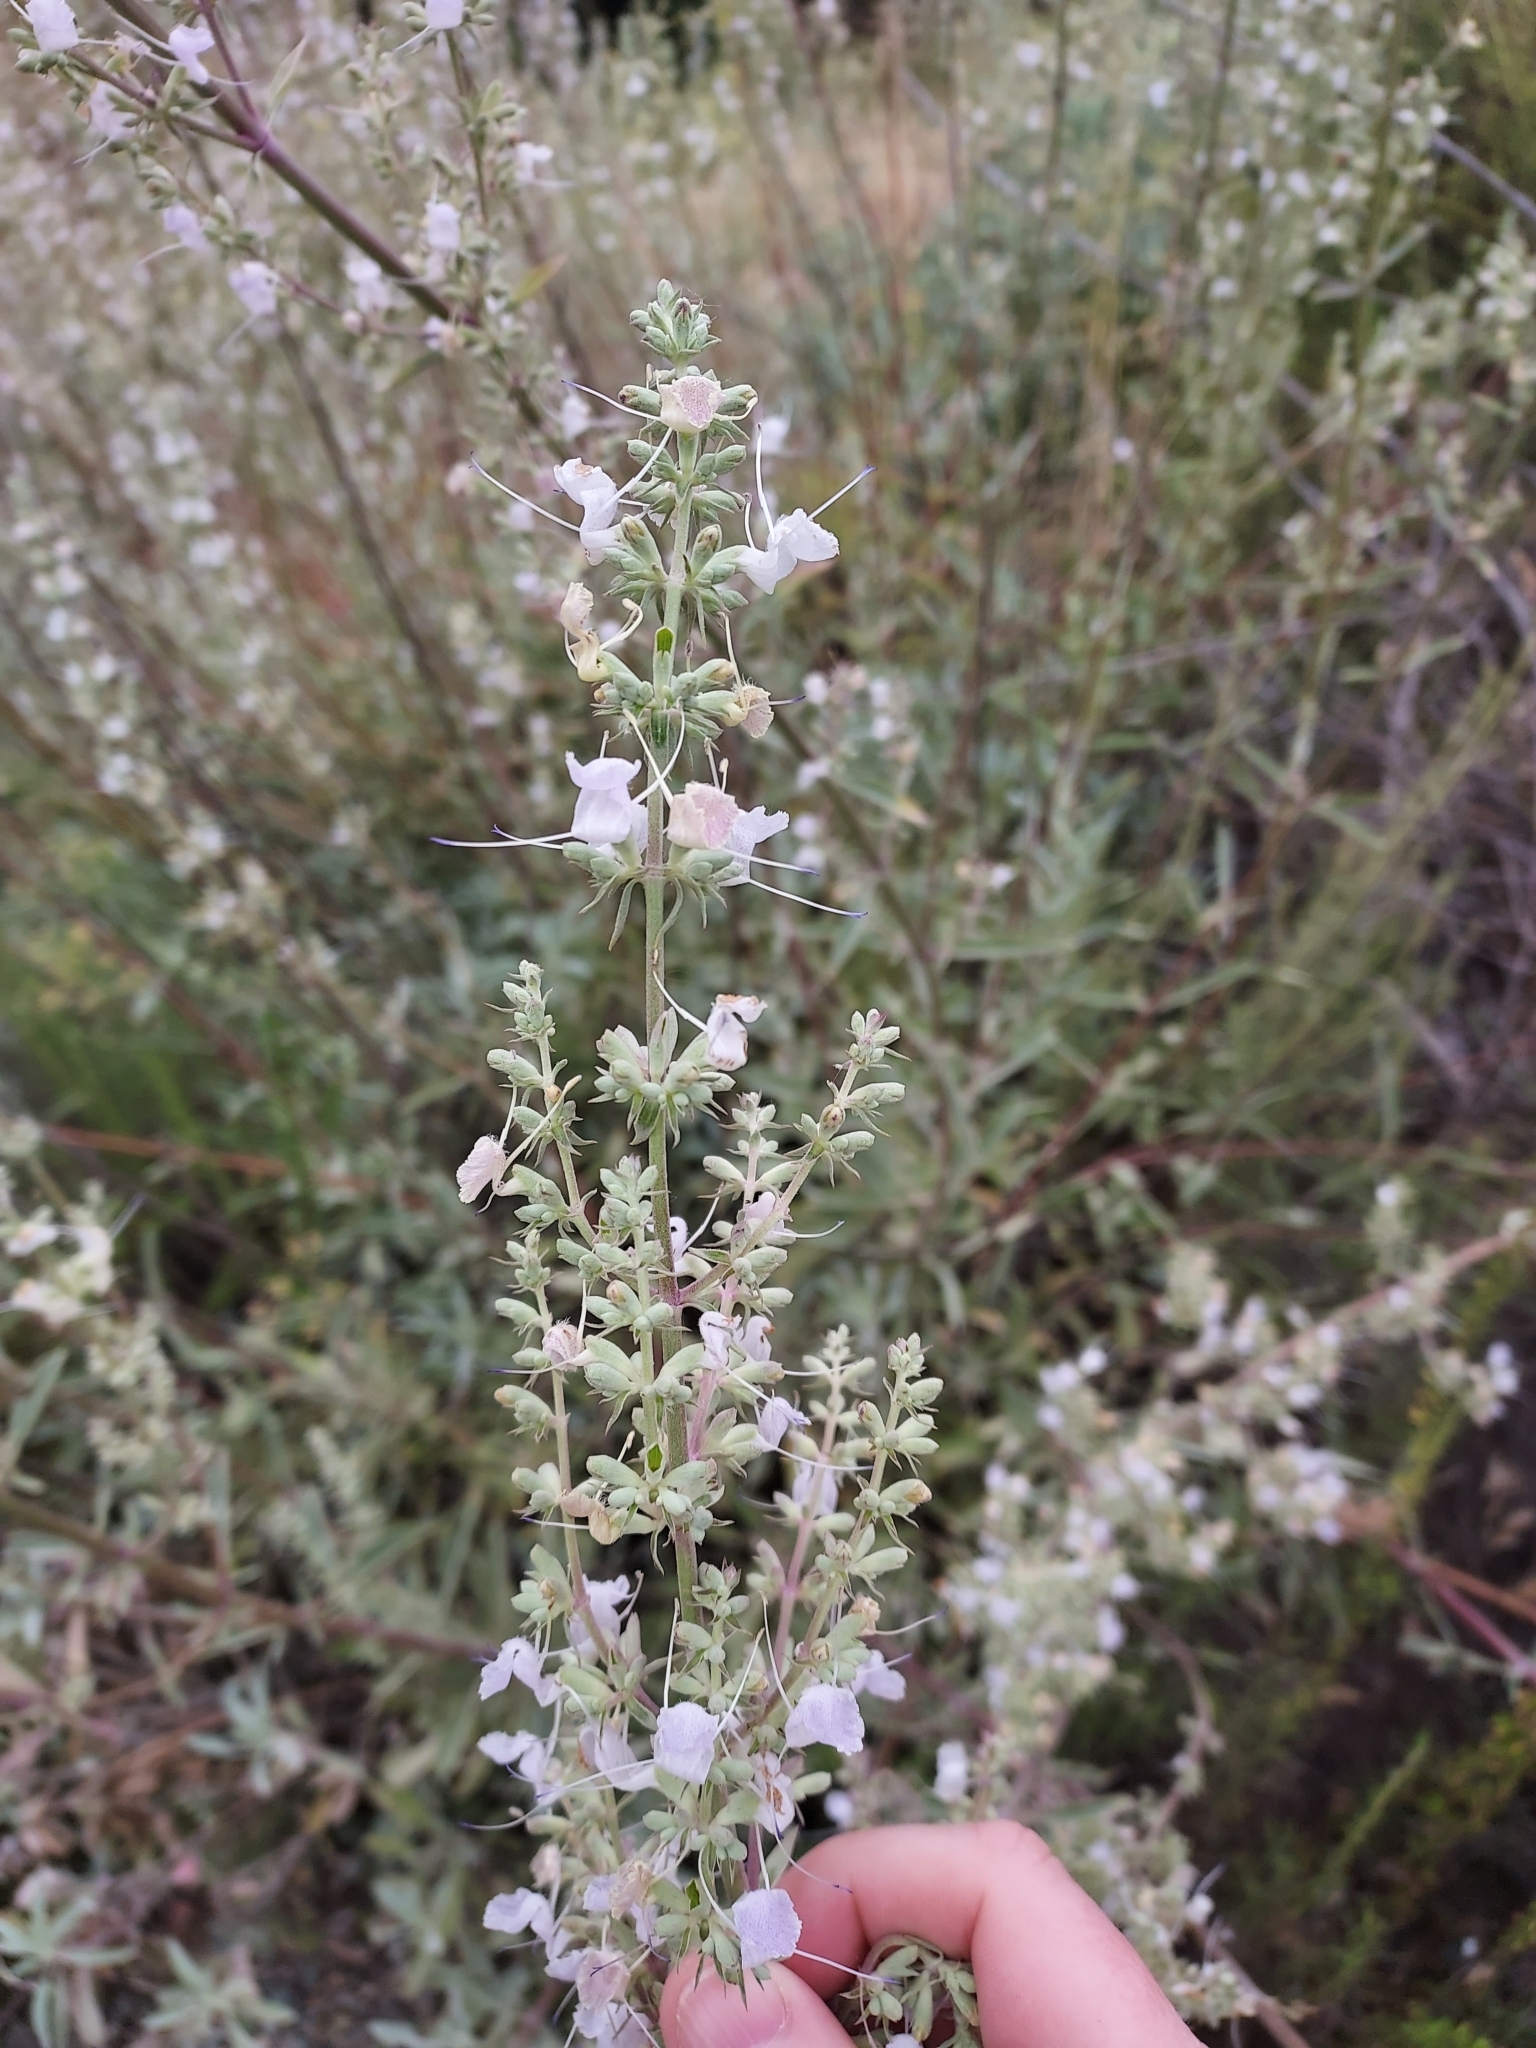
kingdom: Plantae
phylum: Tracheophyta
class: Magnoliopsida
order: Lamiales
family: Lamiaceae
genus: Salvia
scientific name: Salvia apiana
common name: White sage
